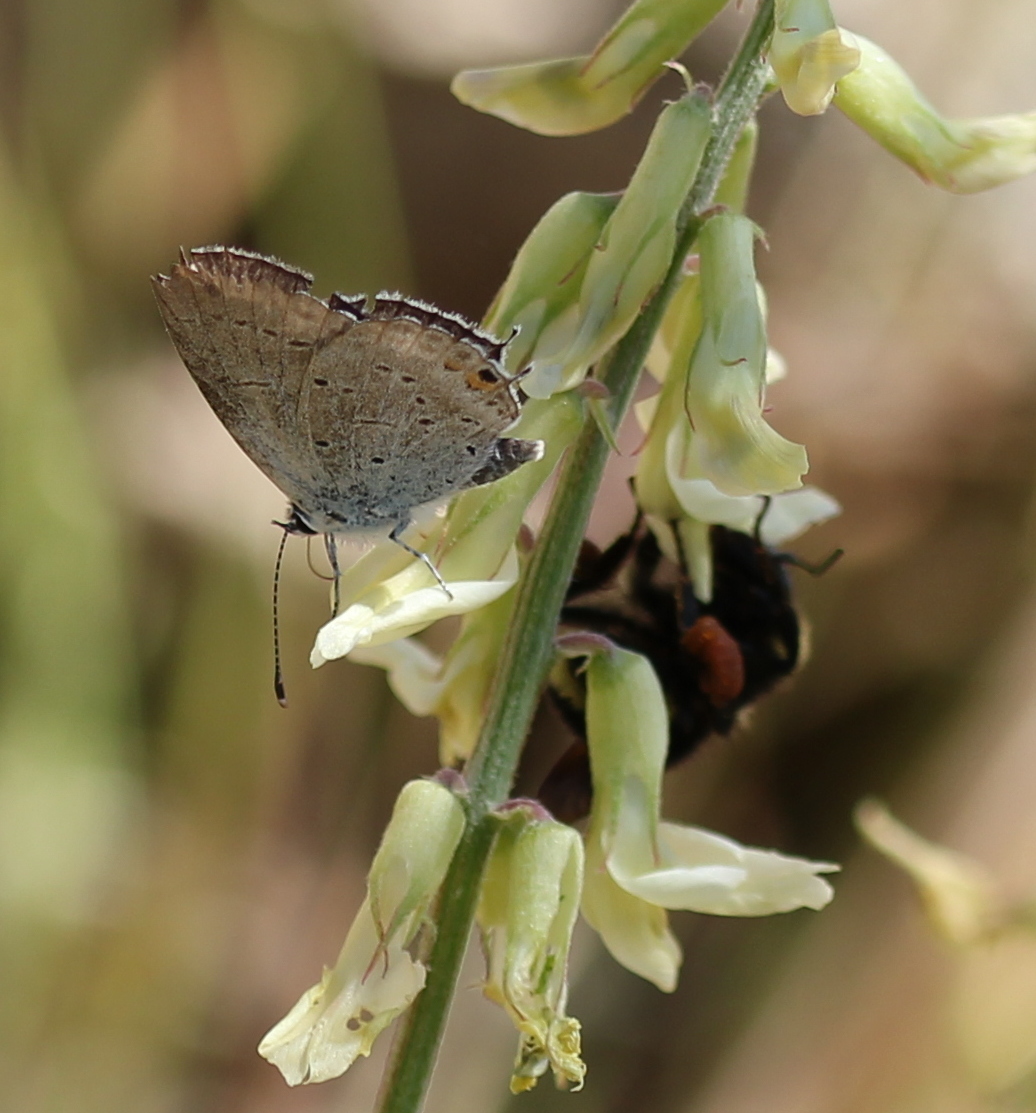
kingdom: Animalia
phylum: Arthropoda
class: Insecta
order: Lepidoptera
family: Lycaenidae
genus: Elkalyce
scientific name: Elkalyce amyntula
